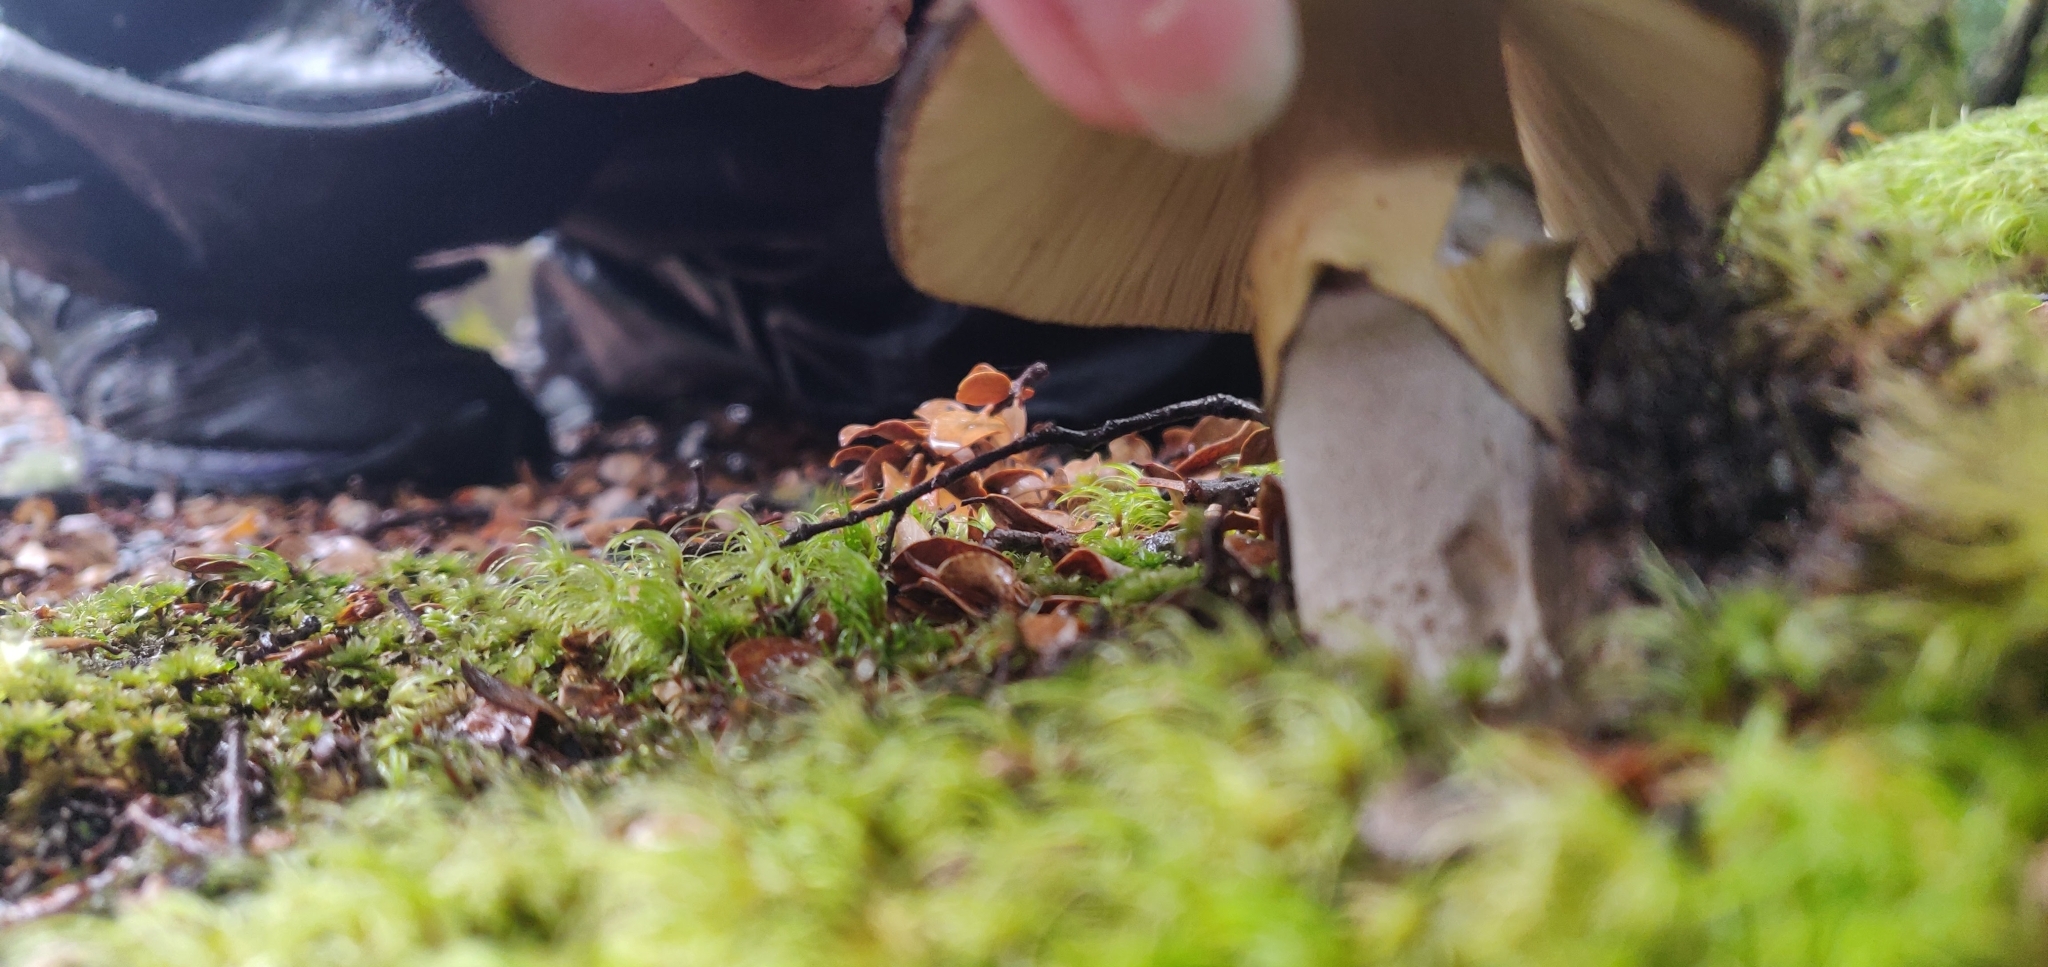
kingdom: Fungi
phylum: Basidiomycota
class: Agaricomycetes
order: Agaricales
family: Amanitaceae
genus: Amanita
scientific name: Amanita nothofagi
